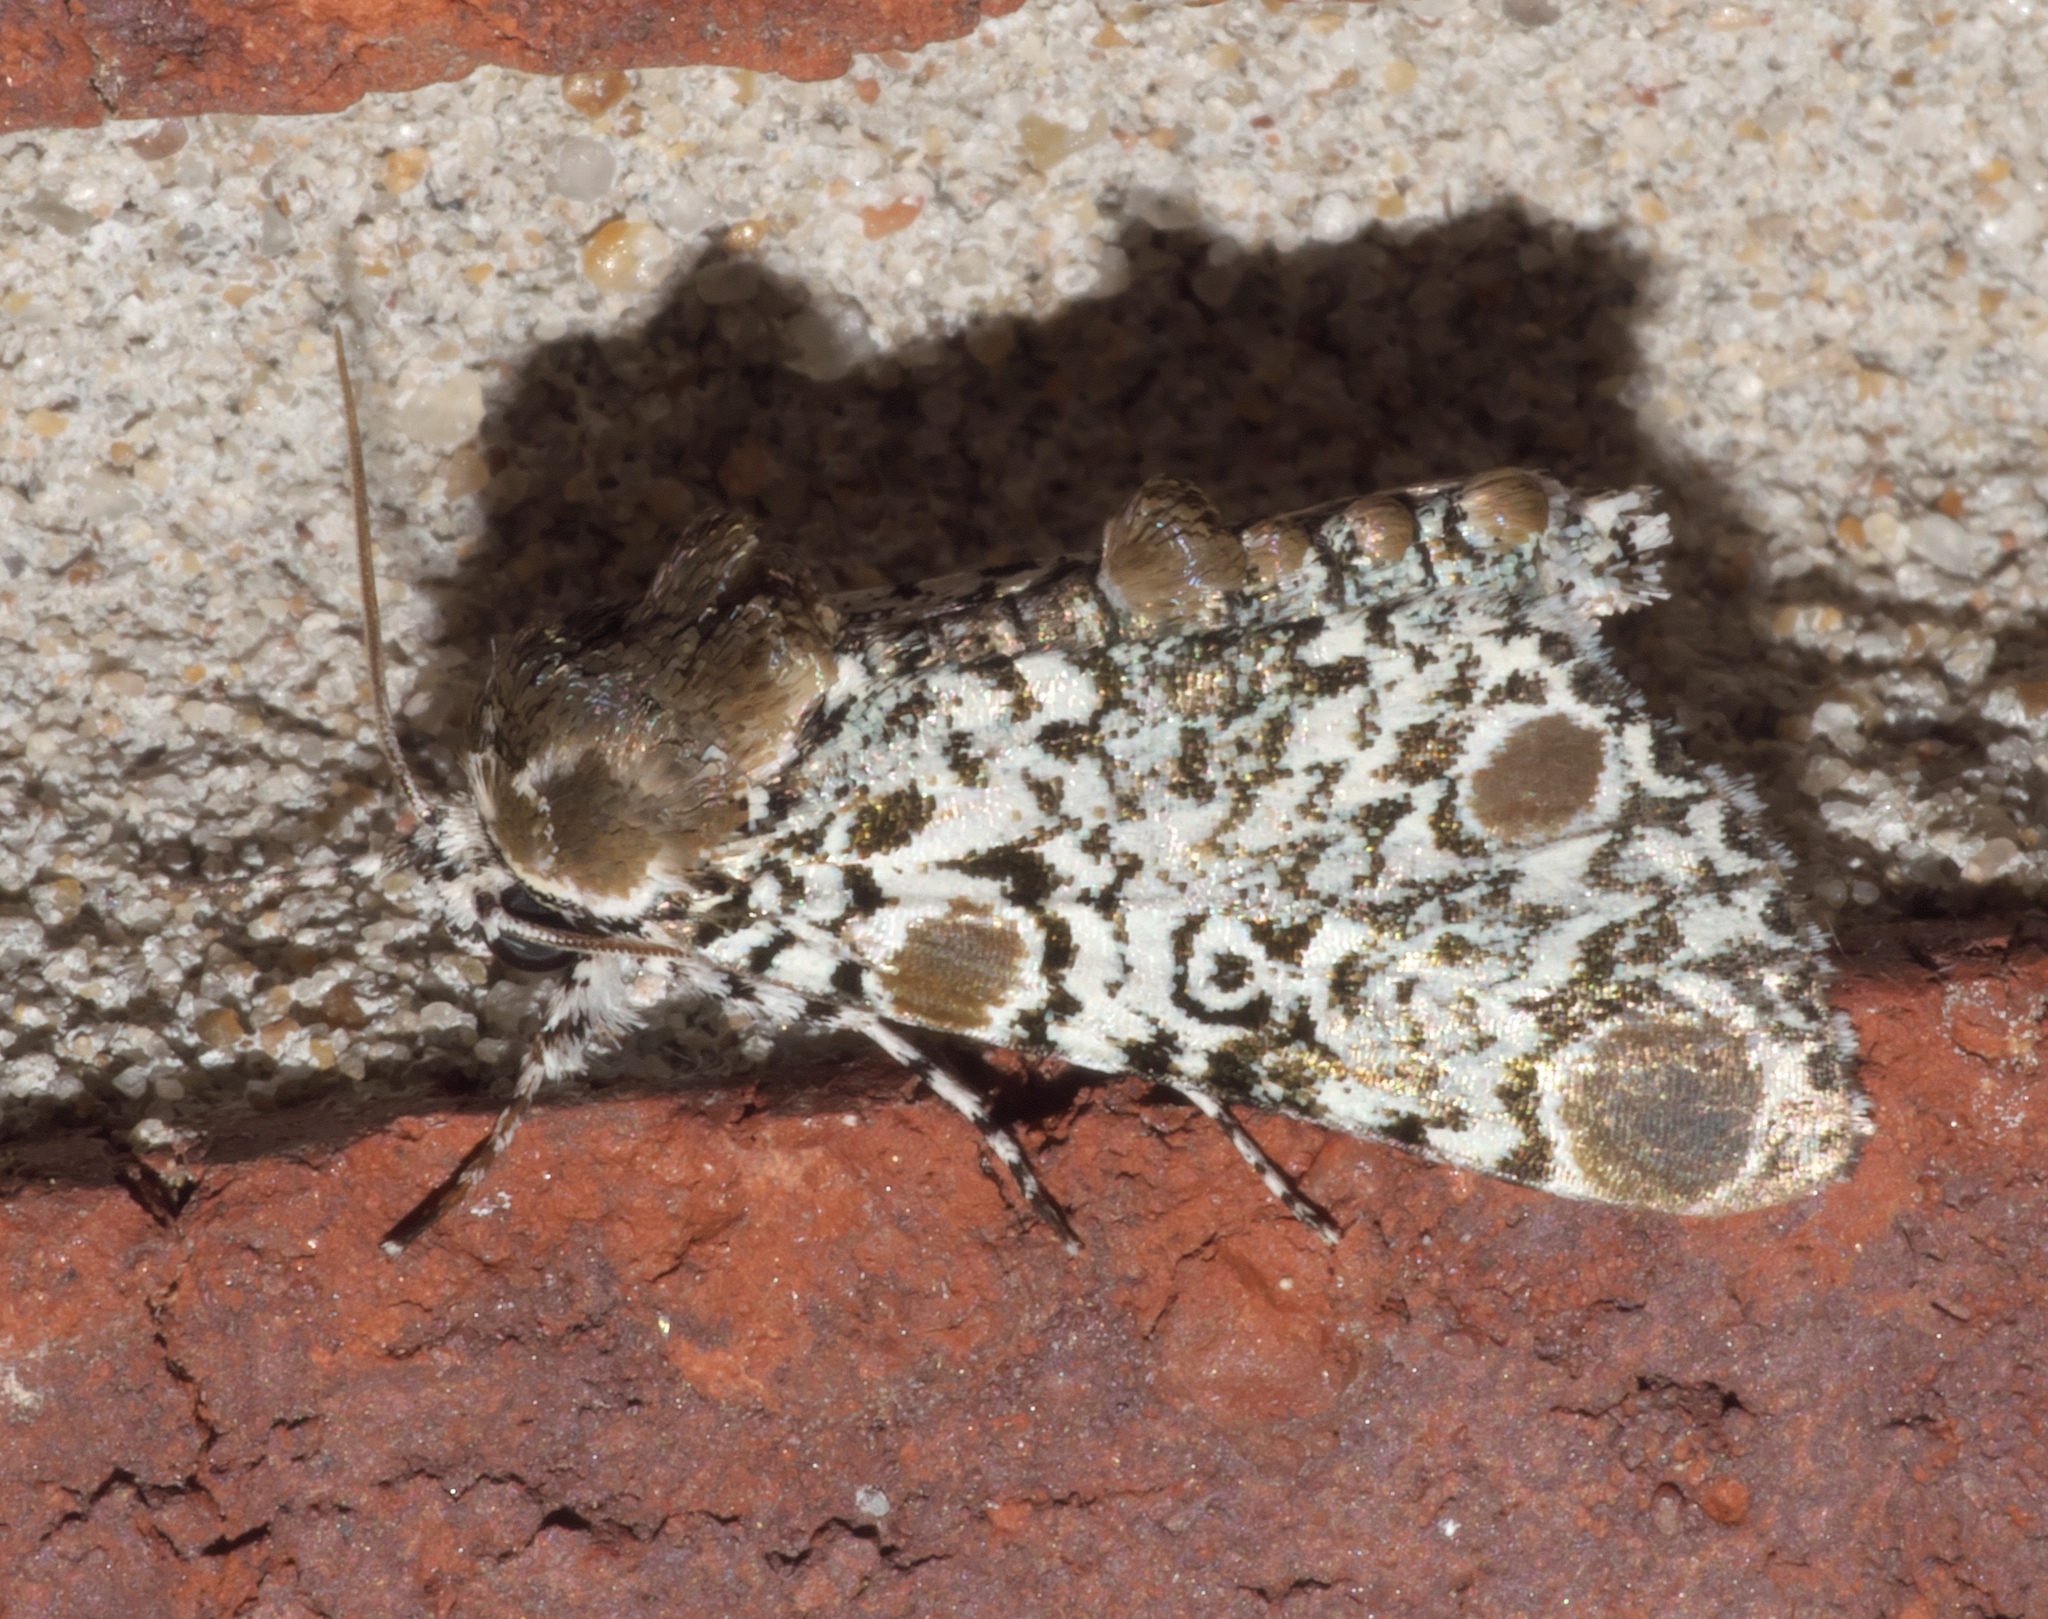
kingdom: Animalia
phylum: Arthropoda
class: Insecta
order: Lepidoptera
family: Noctuidae
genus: Harrisimemna
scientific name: Harrisimemna trisignata
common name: Harris threespot
